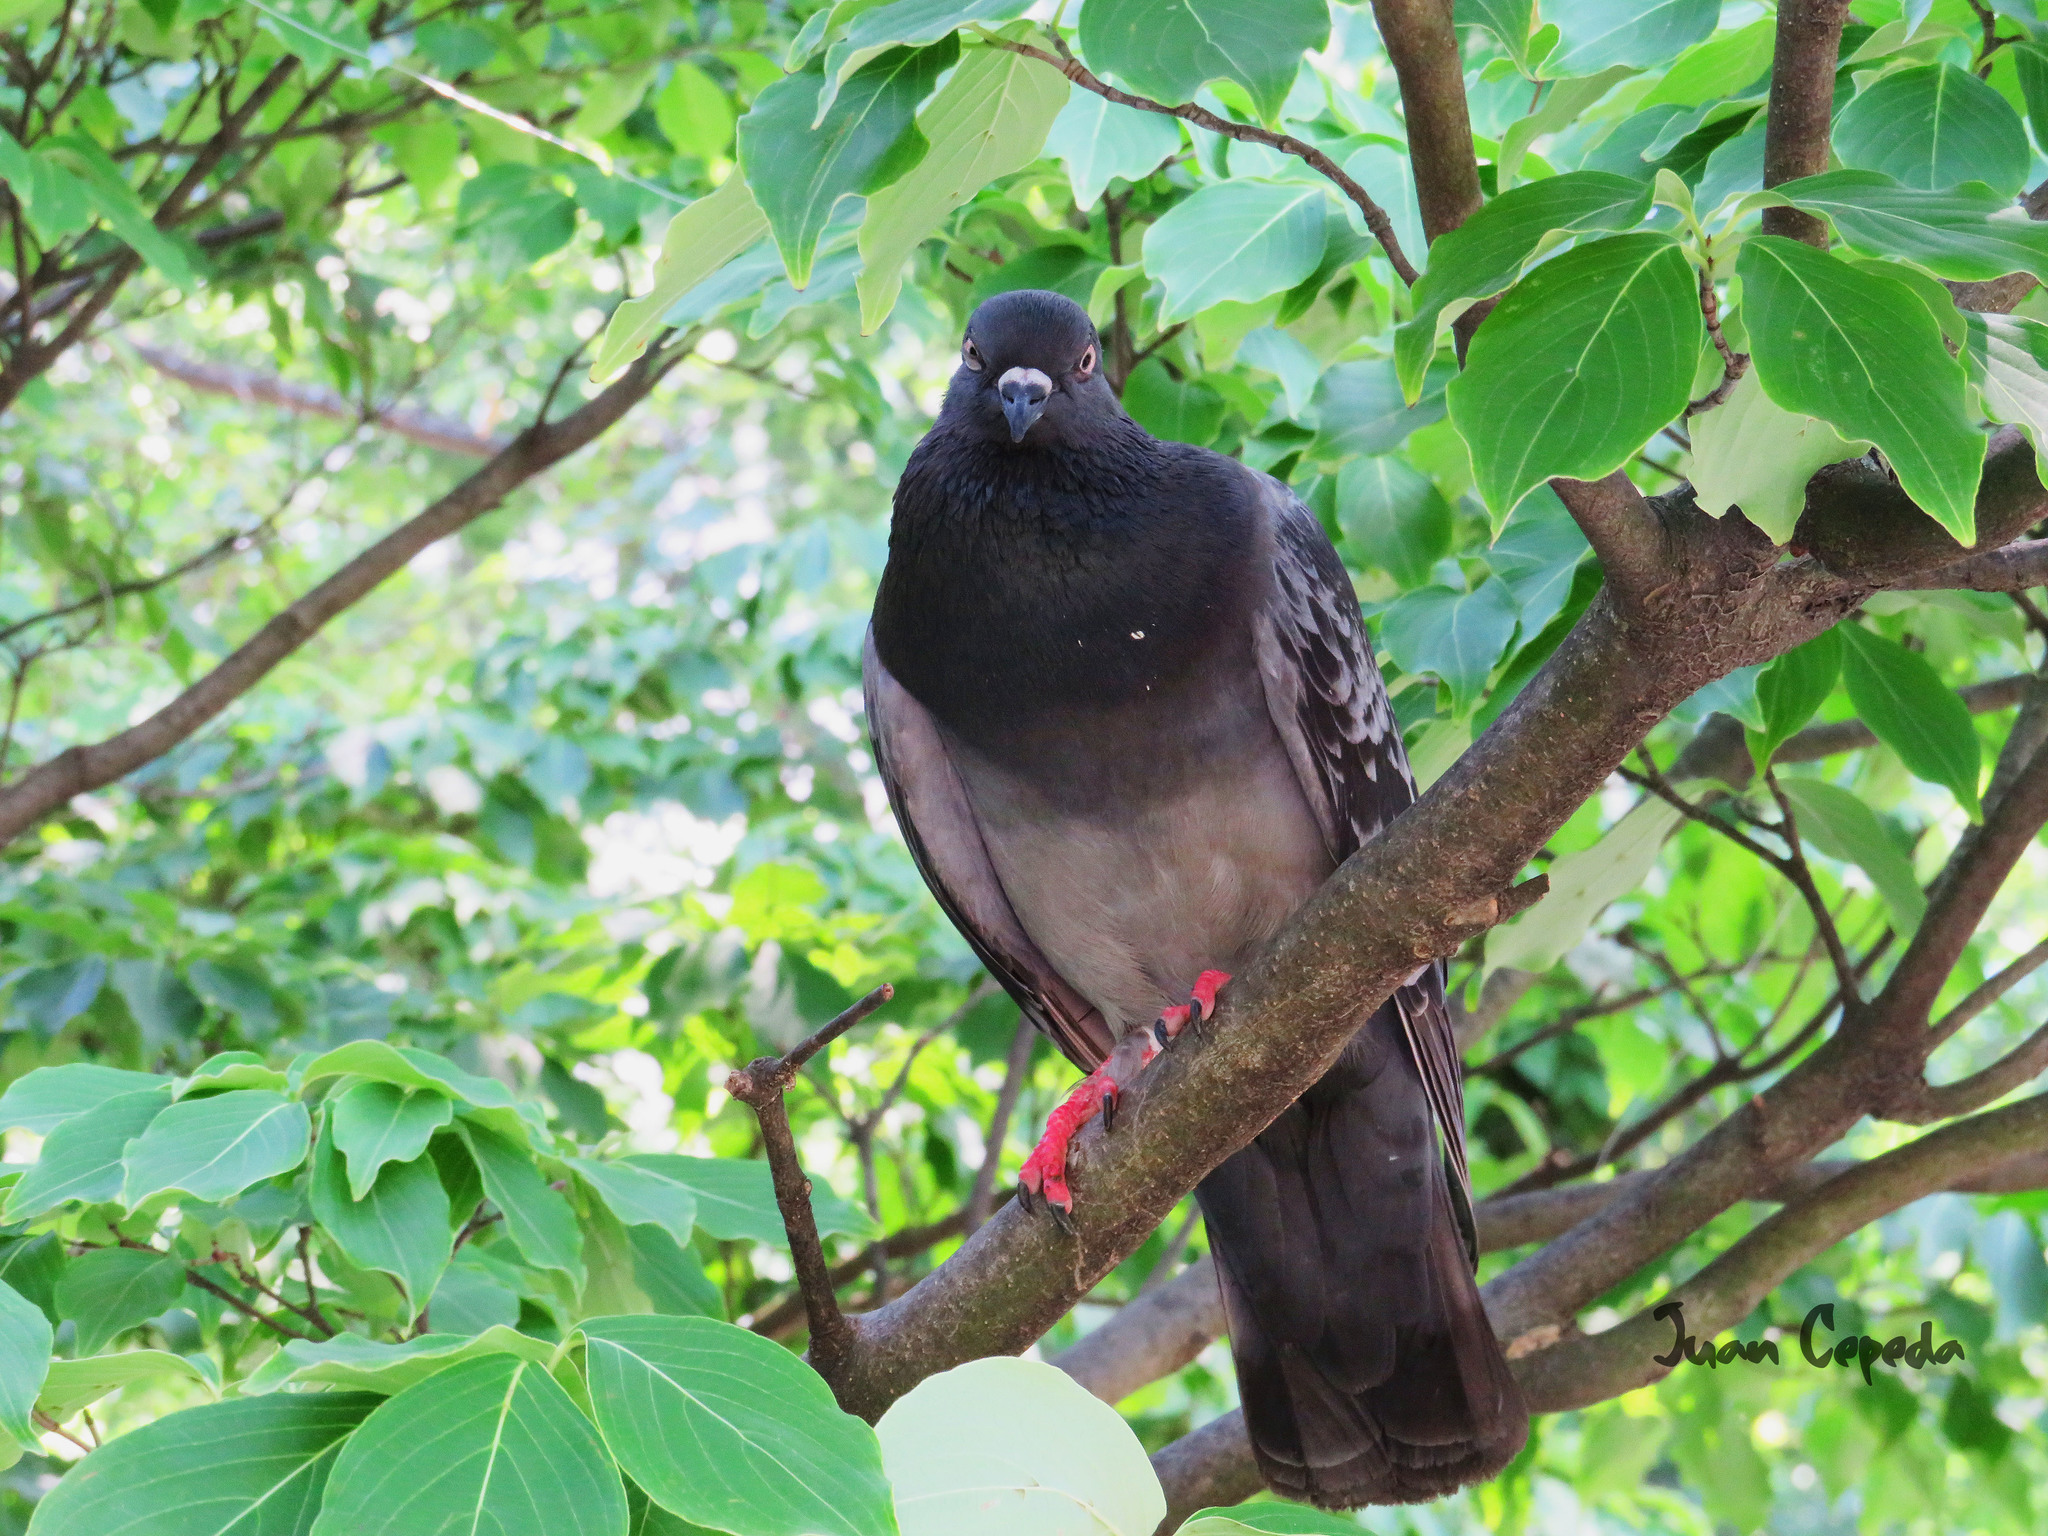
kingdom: Animalia
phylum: Chordata
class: Aves
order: Columbiformes
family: Columbidae
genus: Columba
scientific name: Columba livia
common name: Rock pigeon
